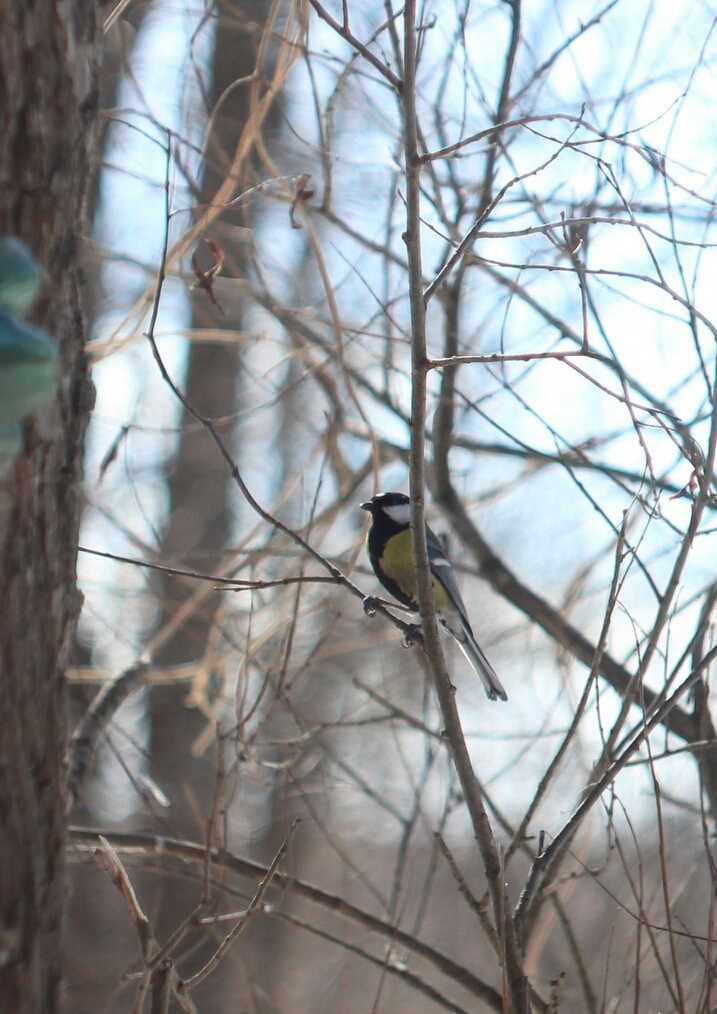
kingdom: Animalia
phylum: Chordata
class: Aves
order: Passeriformes
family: Paridae
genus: Parus
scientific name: Parus major
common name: Great tit
